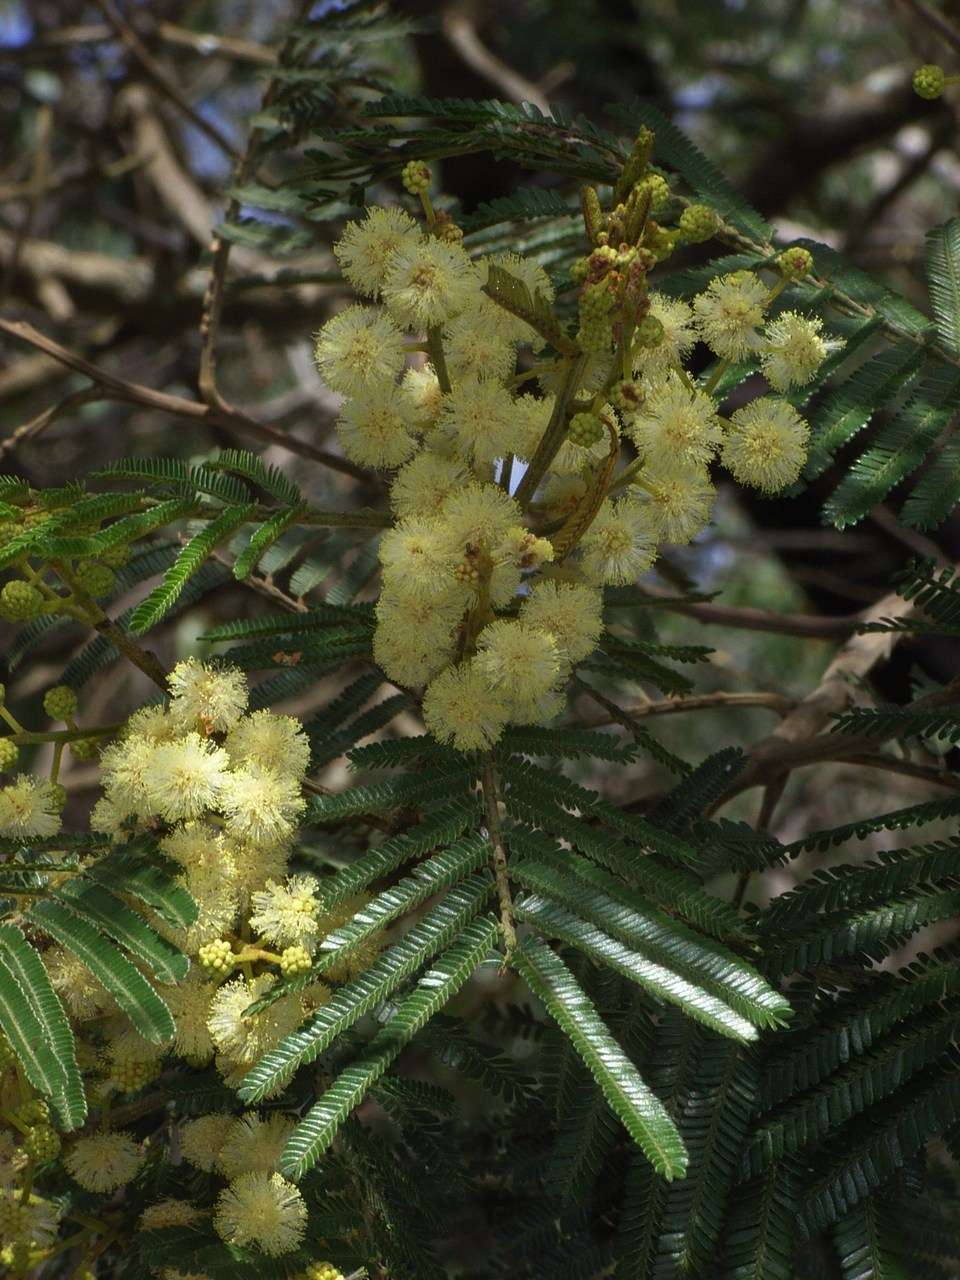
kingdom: Plantae
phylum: Tracheophyta
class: Magnoliopsida
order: Fabales
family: Fabaceae
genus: Acacia
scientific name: Acacia mearnsii
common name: Black wattle
